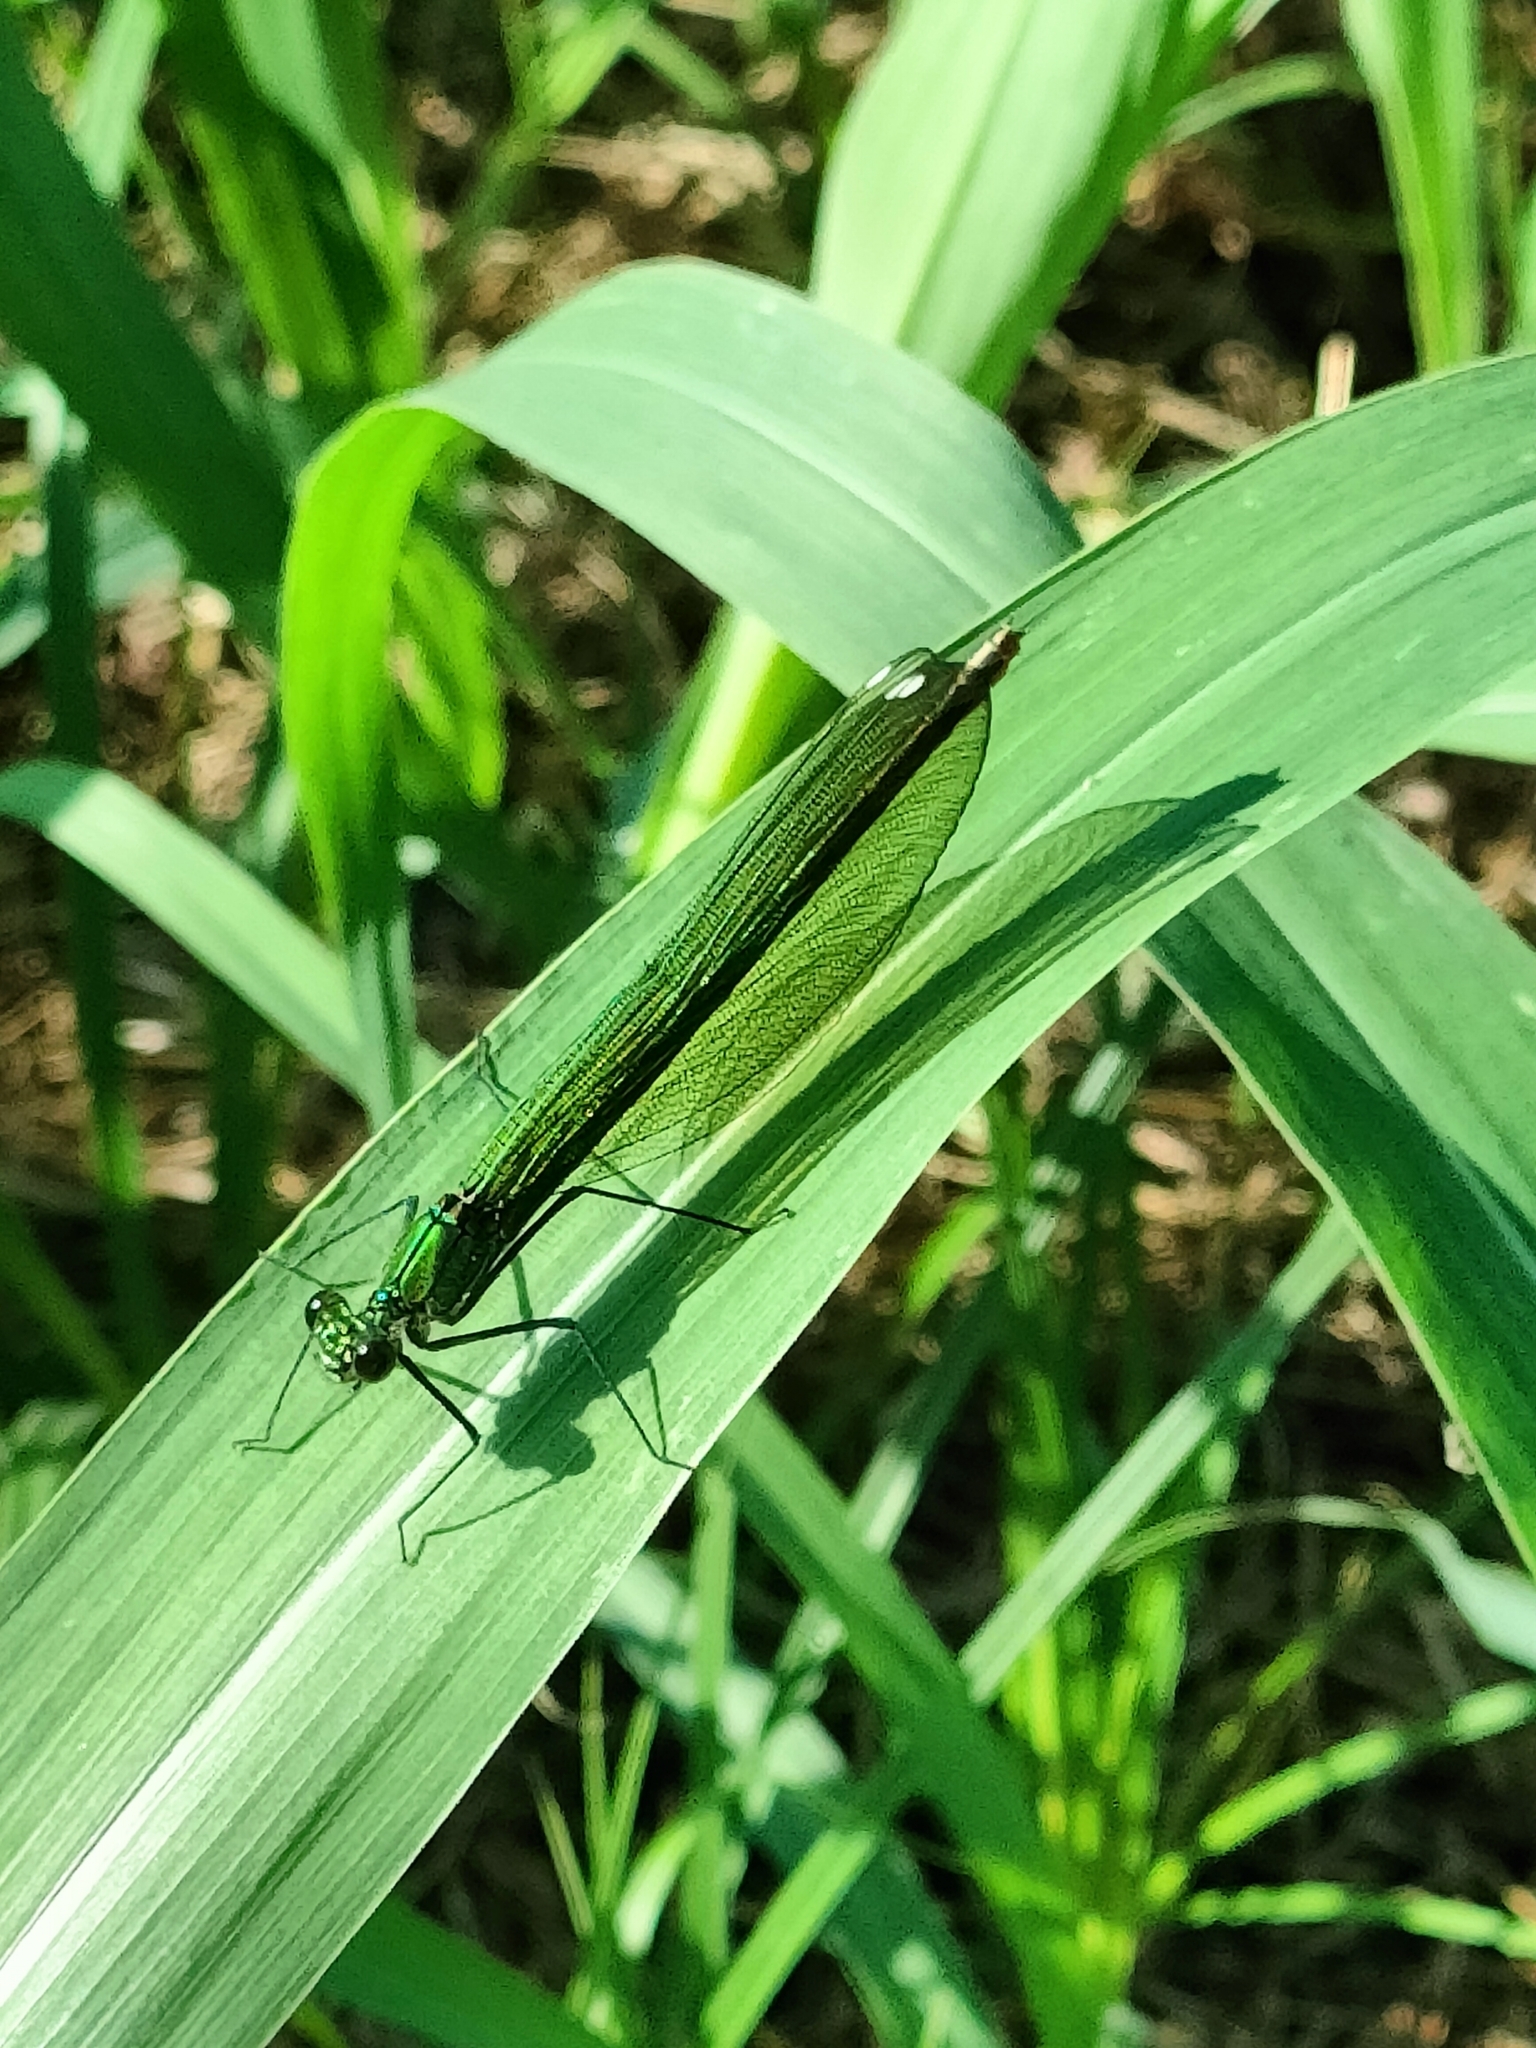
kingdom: Animalia
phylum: Arthropoda
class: Insecta
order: Odonata
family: Calopterygidae
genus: Calopteryx
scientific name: Calopteryx splendens
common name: Banded demoiselle
